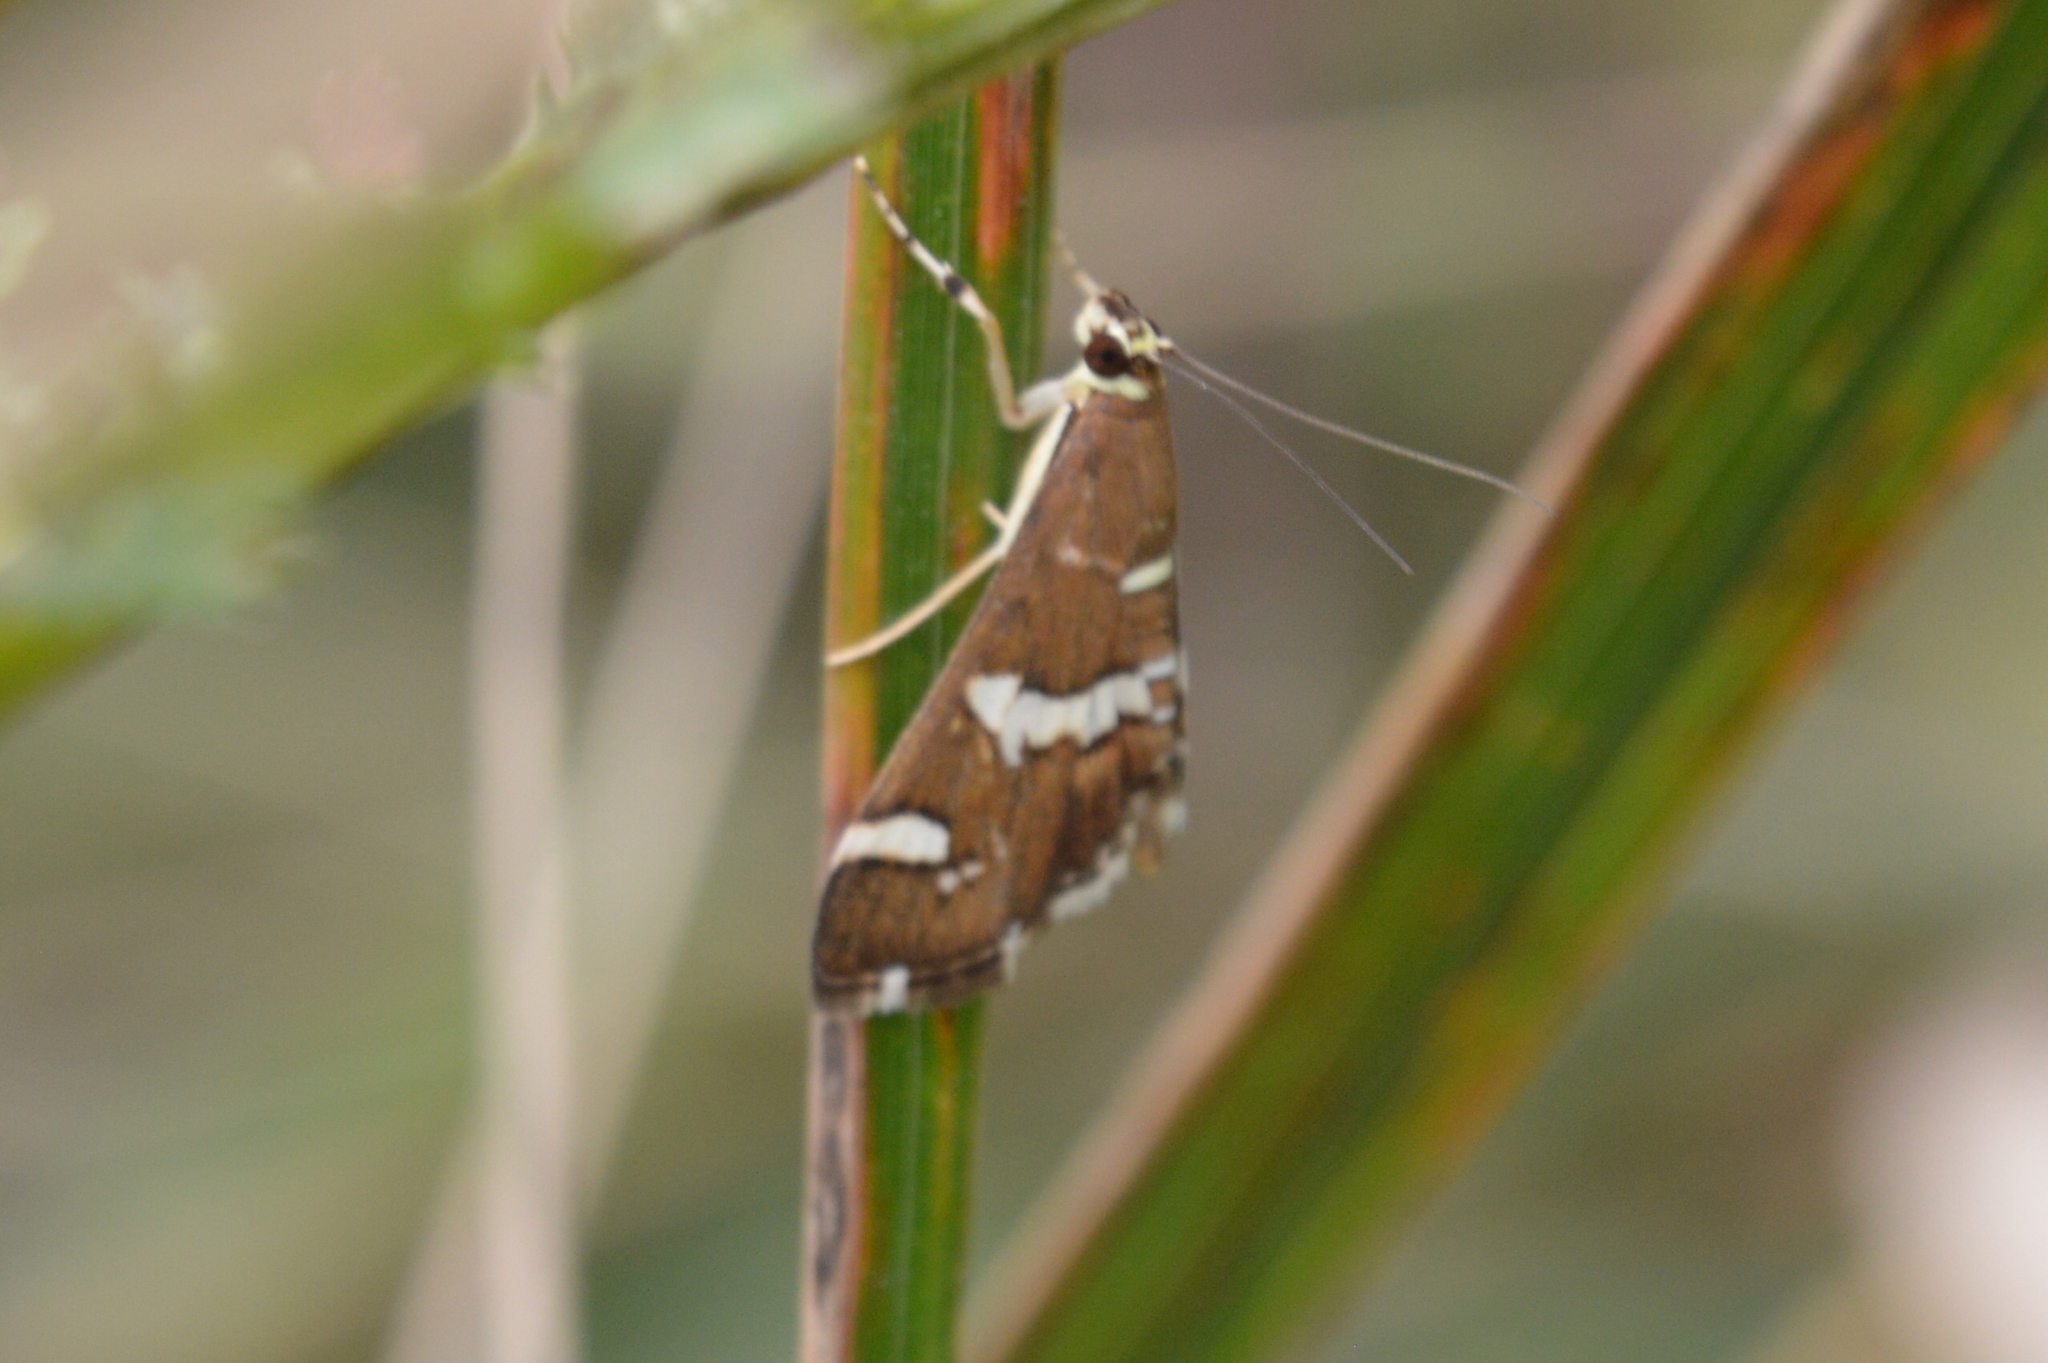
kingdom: Animalia
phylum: Arthropoda
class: Insecta
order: Lepidoptera
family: Crambidae
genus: Spoladea
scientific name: Spoladea recurvalis
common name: Beet webworm moth
